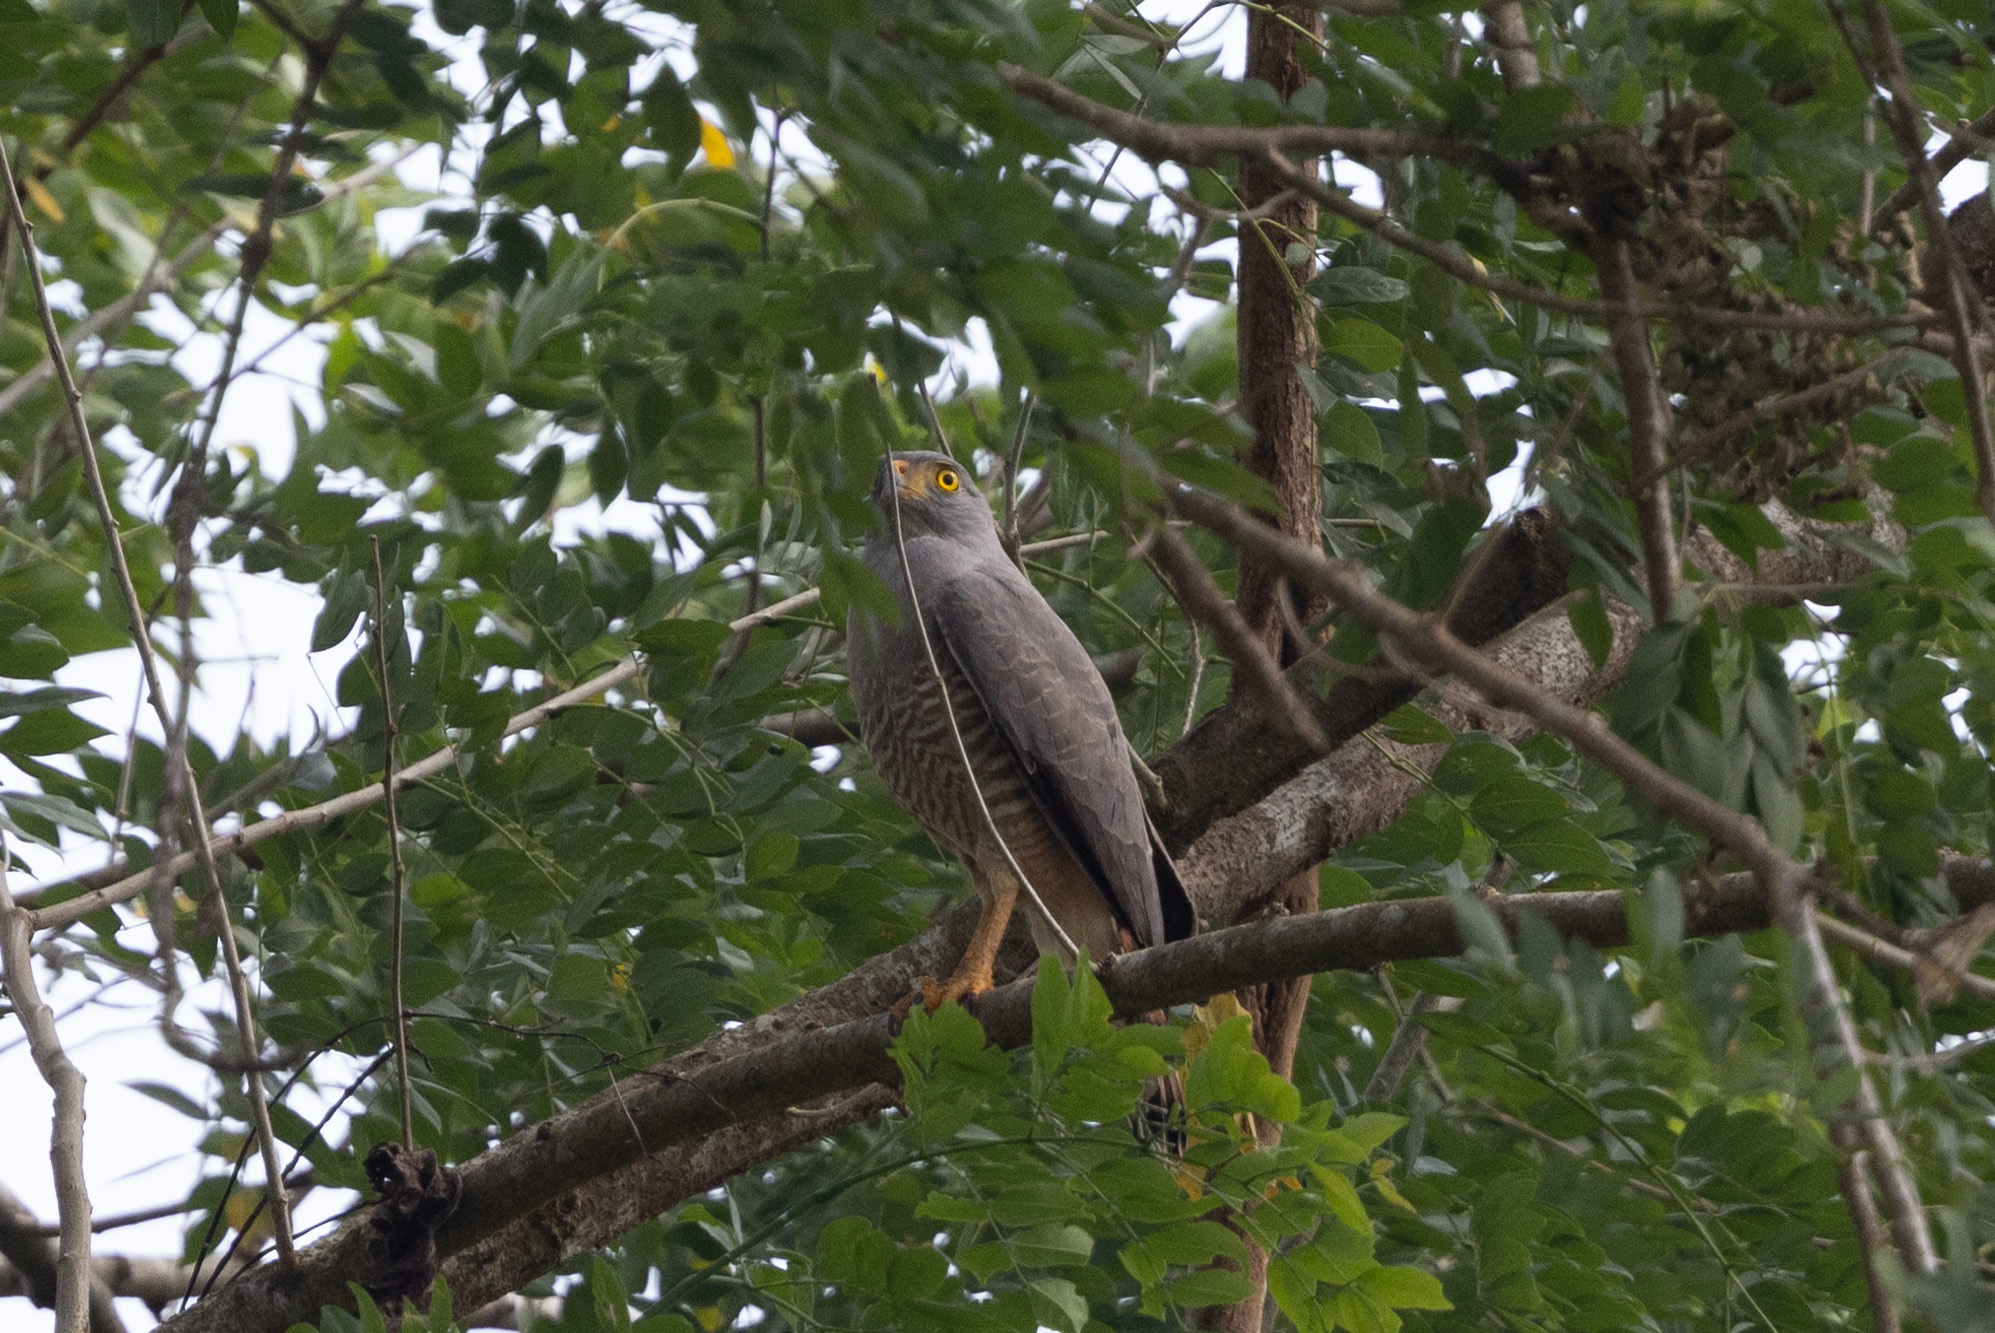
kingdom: Animalia
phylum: Chordata
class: Aves
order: Accipitriformes
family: Accipitridae
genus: Rupornis
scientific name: Rupornis magnirostris
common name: Roadside hawk
